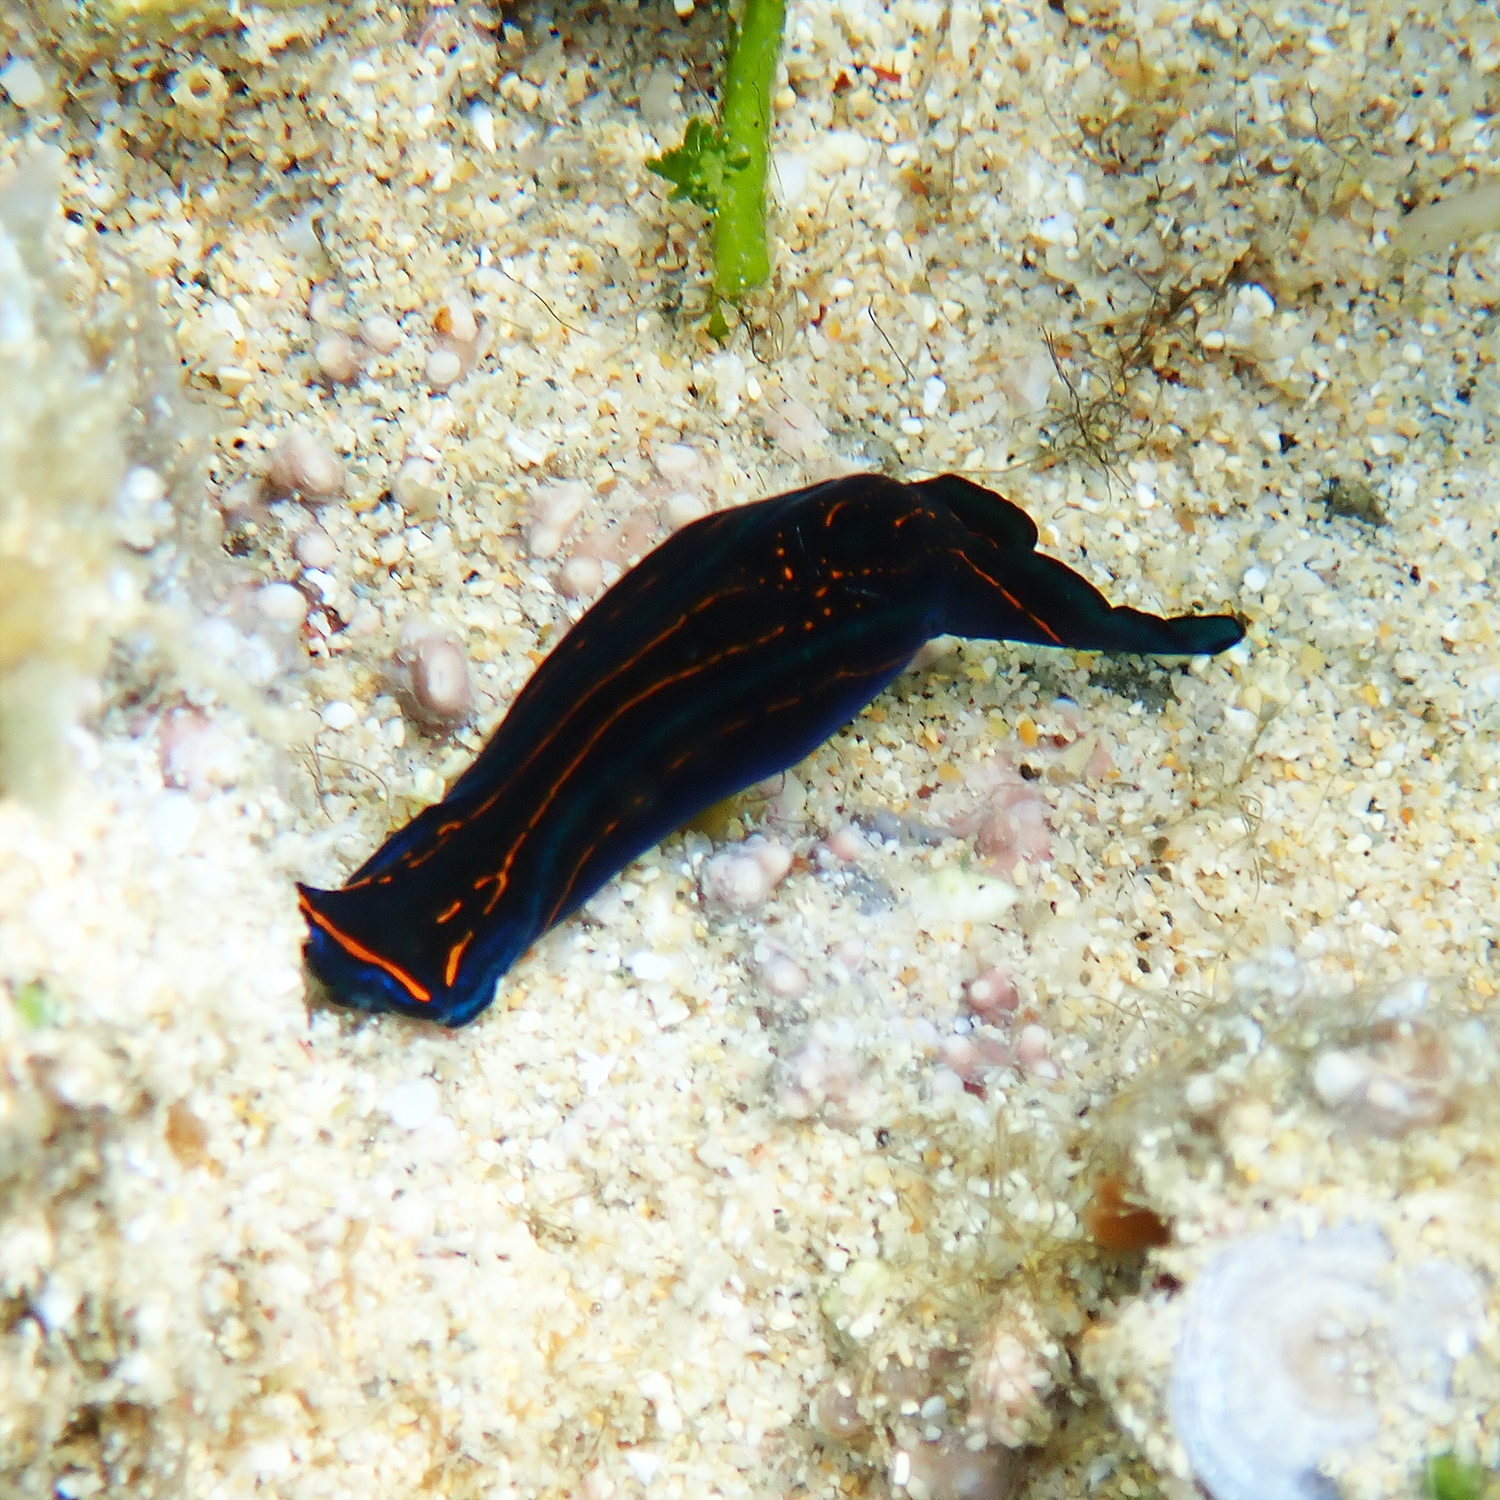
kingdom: Animalia
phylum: Mollusca
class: Gastropoda
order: Cephalaspidea
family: Aglajidae
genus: Chelidonura
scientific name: Chelidonura hirundinina
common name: Leech headshield slug
